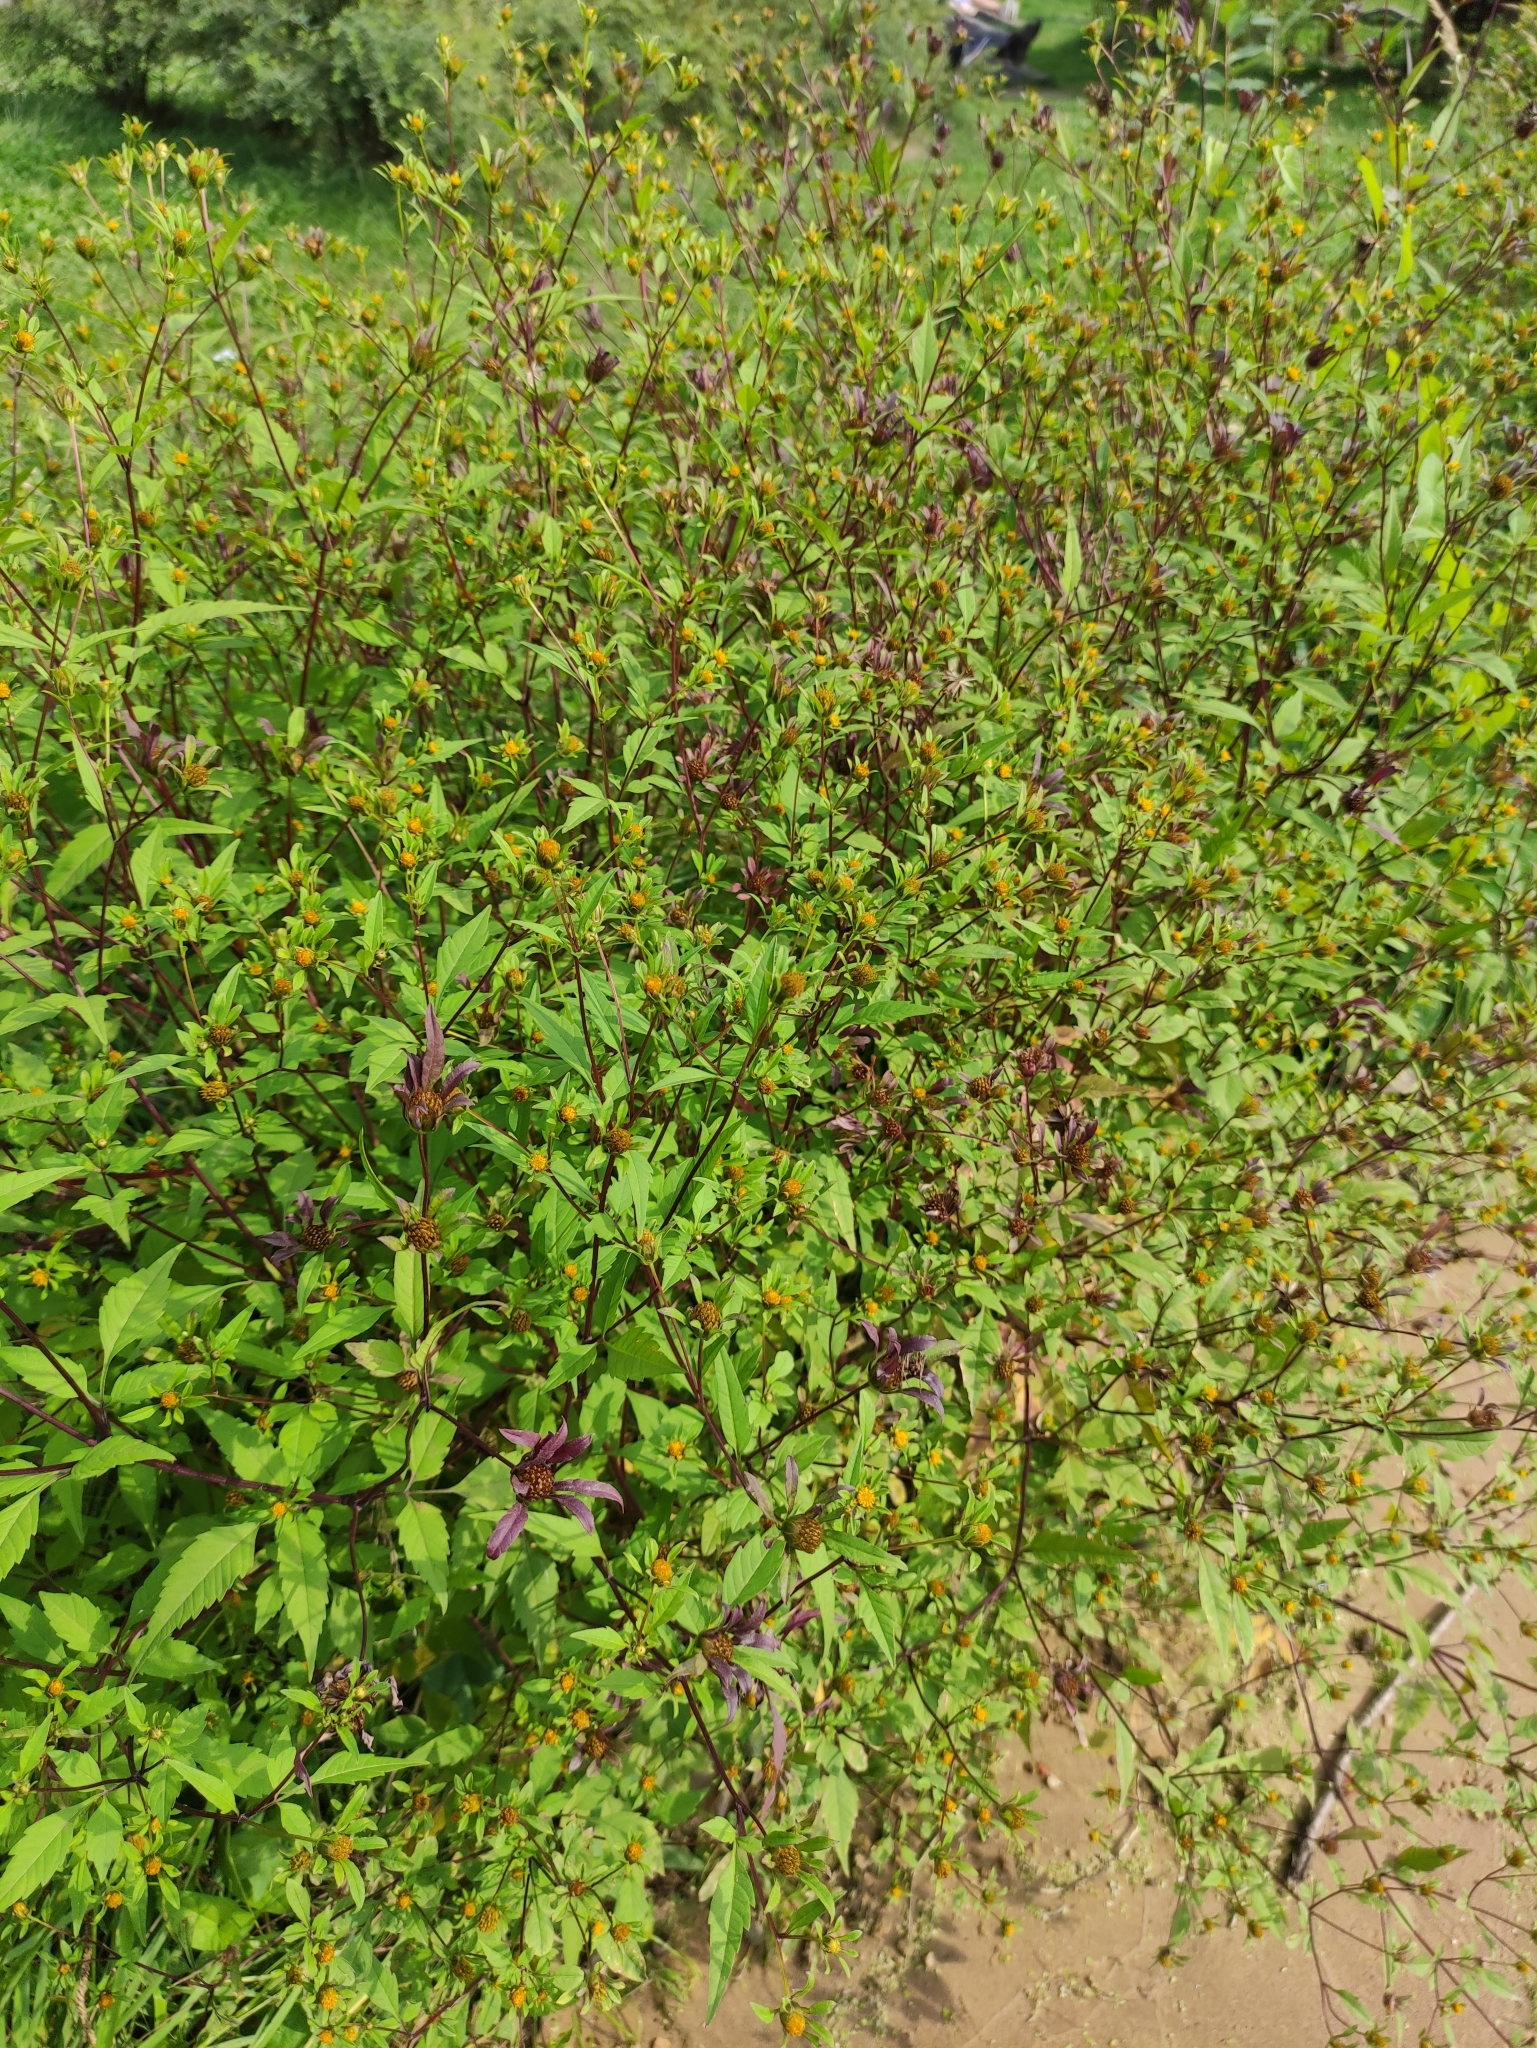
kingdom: Plantae
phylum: Tracheophyta
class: Magnoliopsida
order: Asterales
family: Asteraceae
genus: Bidens
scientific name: Bidens frondosa
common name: Beggarticks
